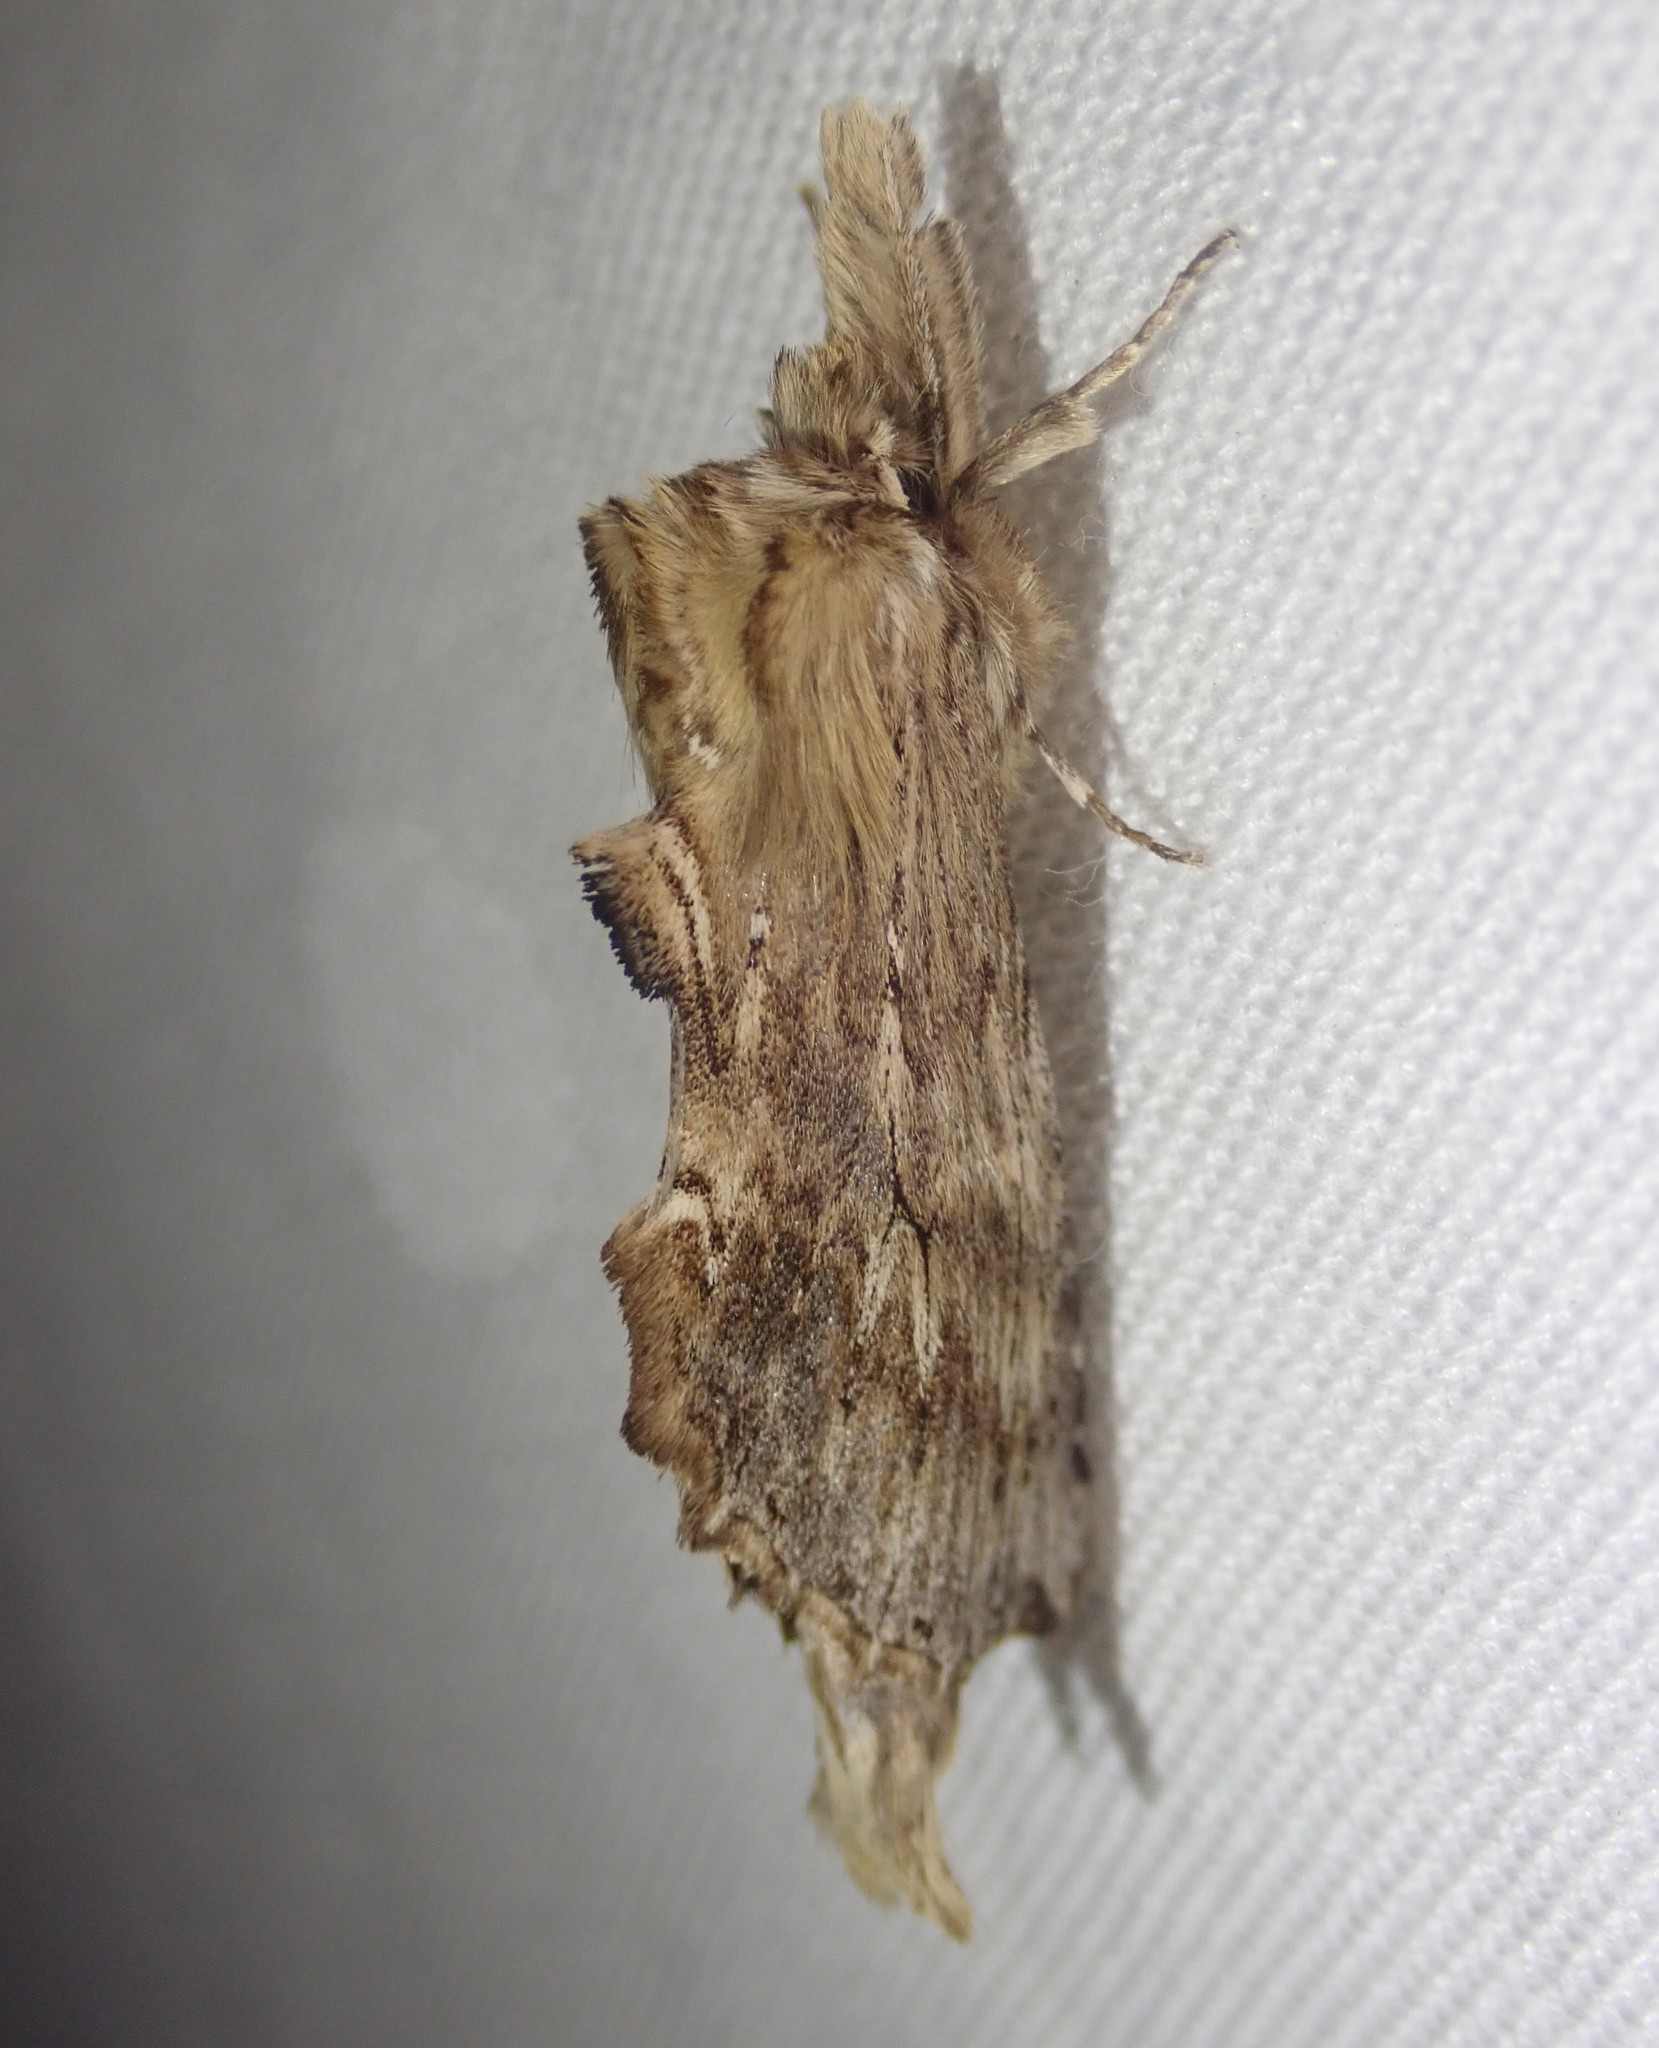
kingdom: Animalia
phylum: Arthropoda
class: Insecta
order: Lepidoptera
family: Notodontidae
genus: Pterostoma
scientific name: Pterostoma palpina
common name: Pale prominent
